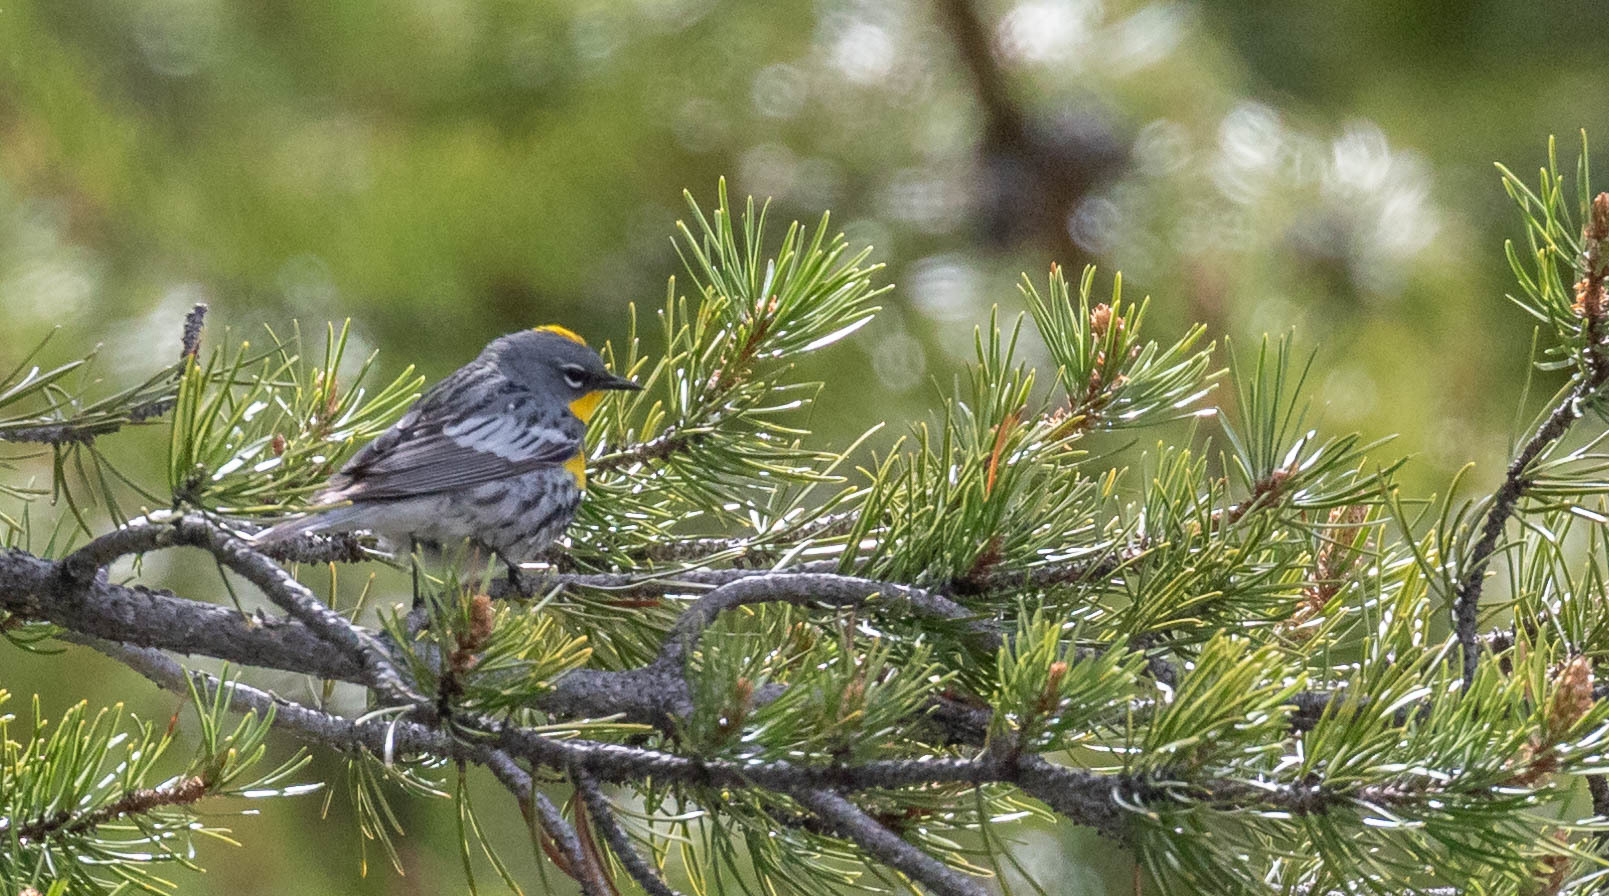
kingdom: Animalia
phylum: Chordata
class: Aves
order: Passeriformes
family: Parulidae
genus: Setophaga
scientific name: Setophaga coronata
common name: Myrtle warbler
